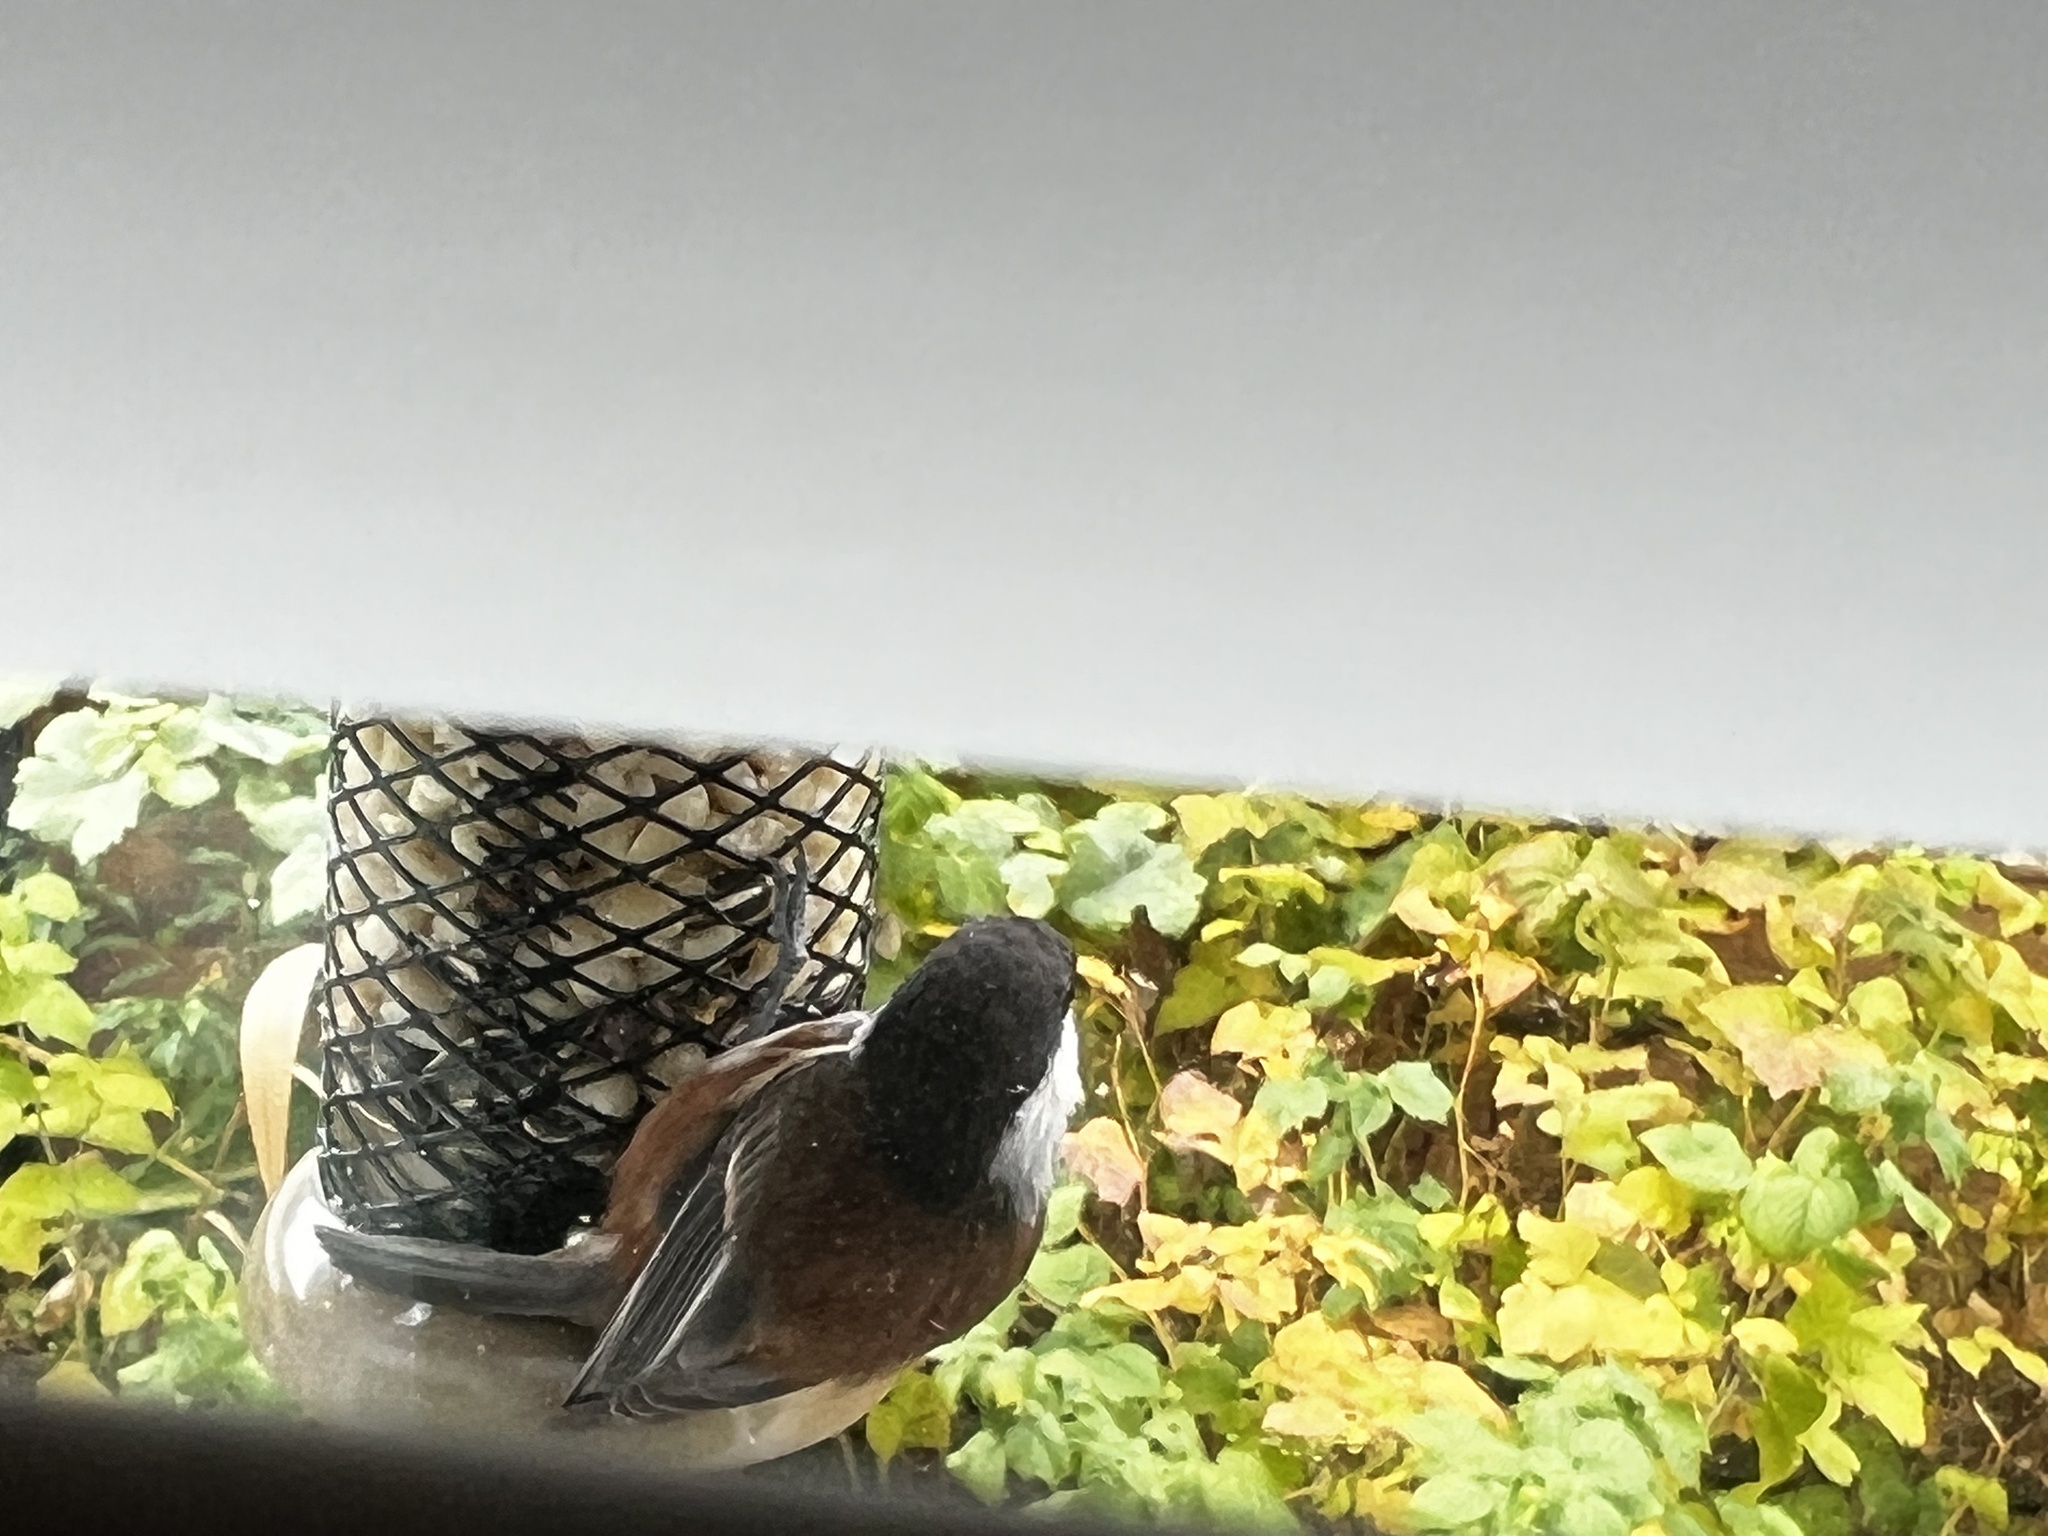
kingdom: Animalia
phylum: Chordata
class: Aves
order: Passeriformes
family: Paridae
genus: Poecile
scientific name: Poecile rufescens
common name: Chestnut-backed chickadee
